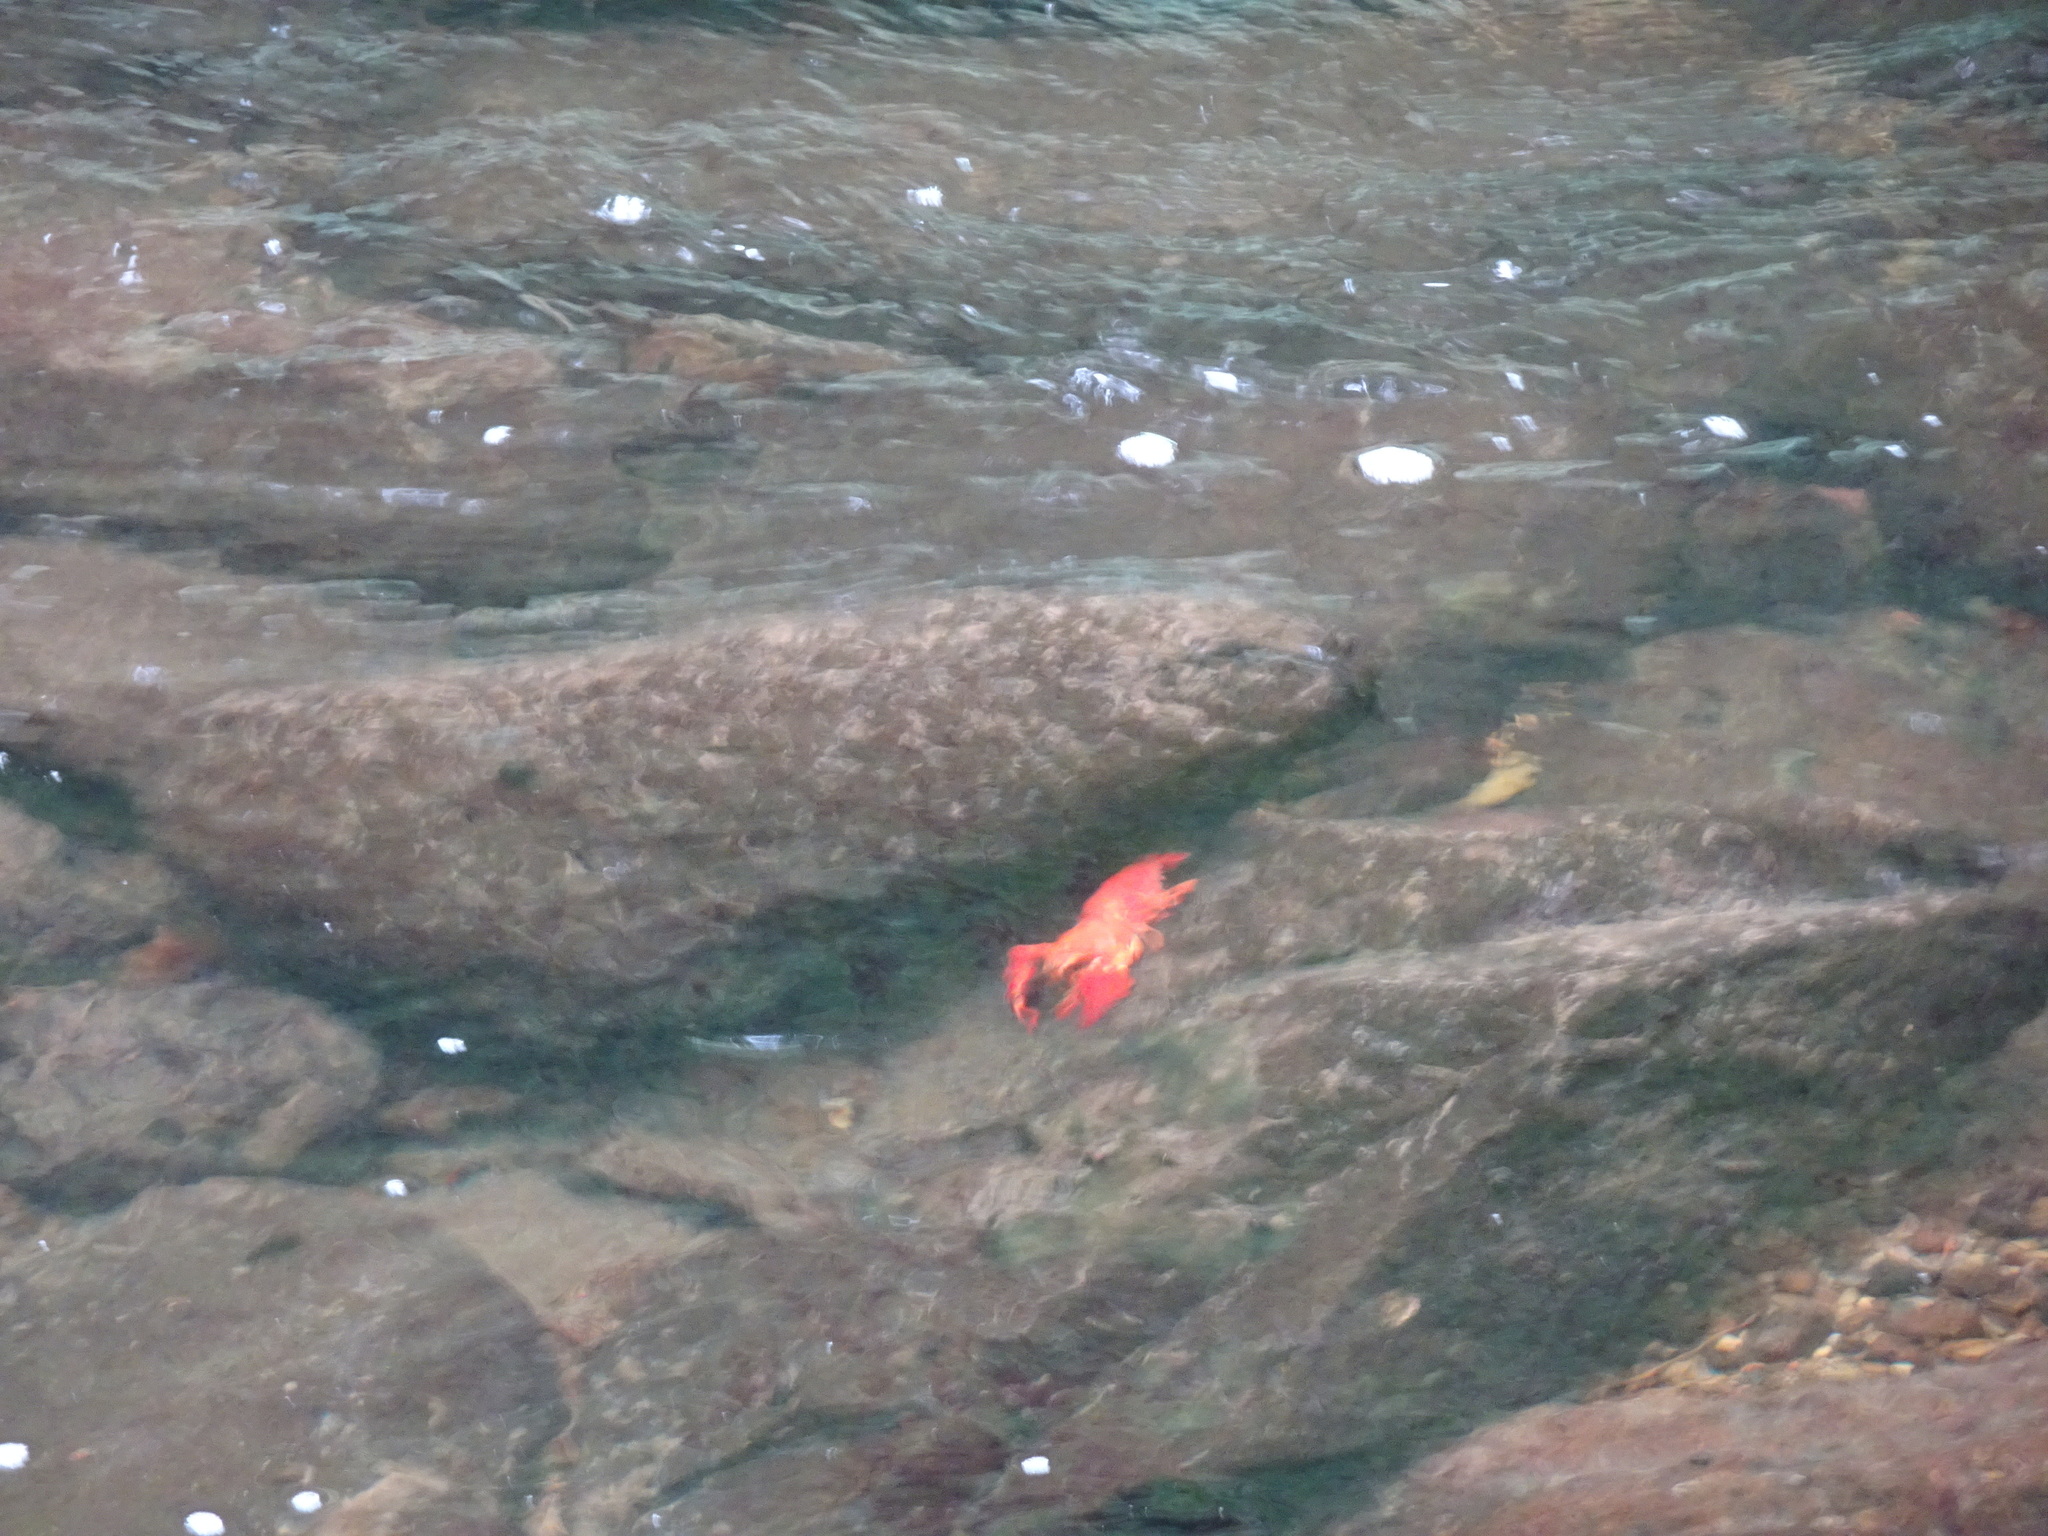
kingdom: Animalia
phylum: Arthropoda
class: Malacostraca
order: Decapoda
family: Astacidae
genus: Pacifastacus
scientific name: Pacifastacus leniusculus
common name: Signal crayfish
